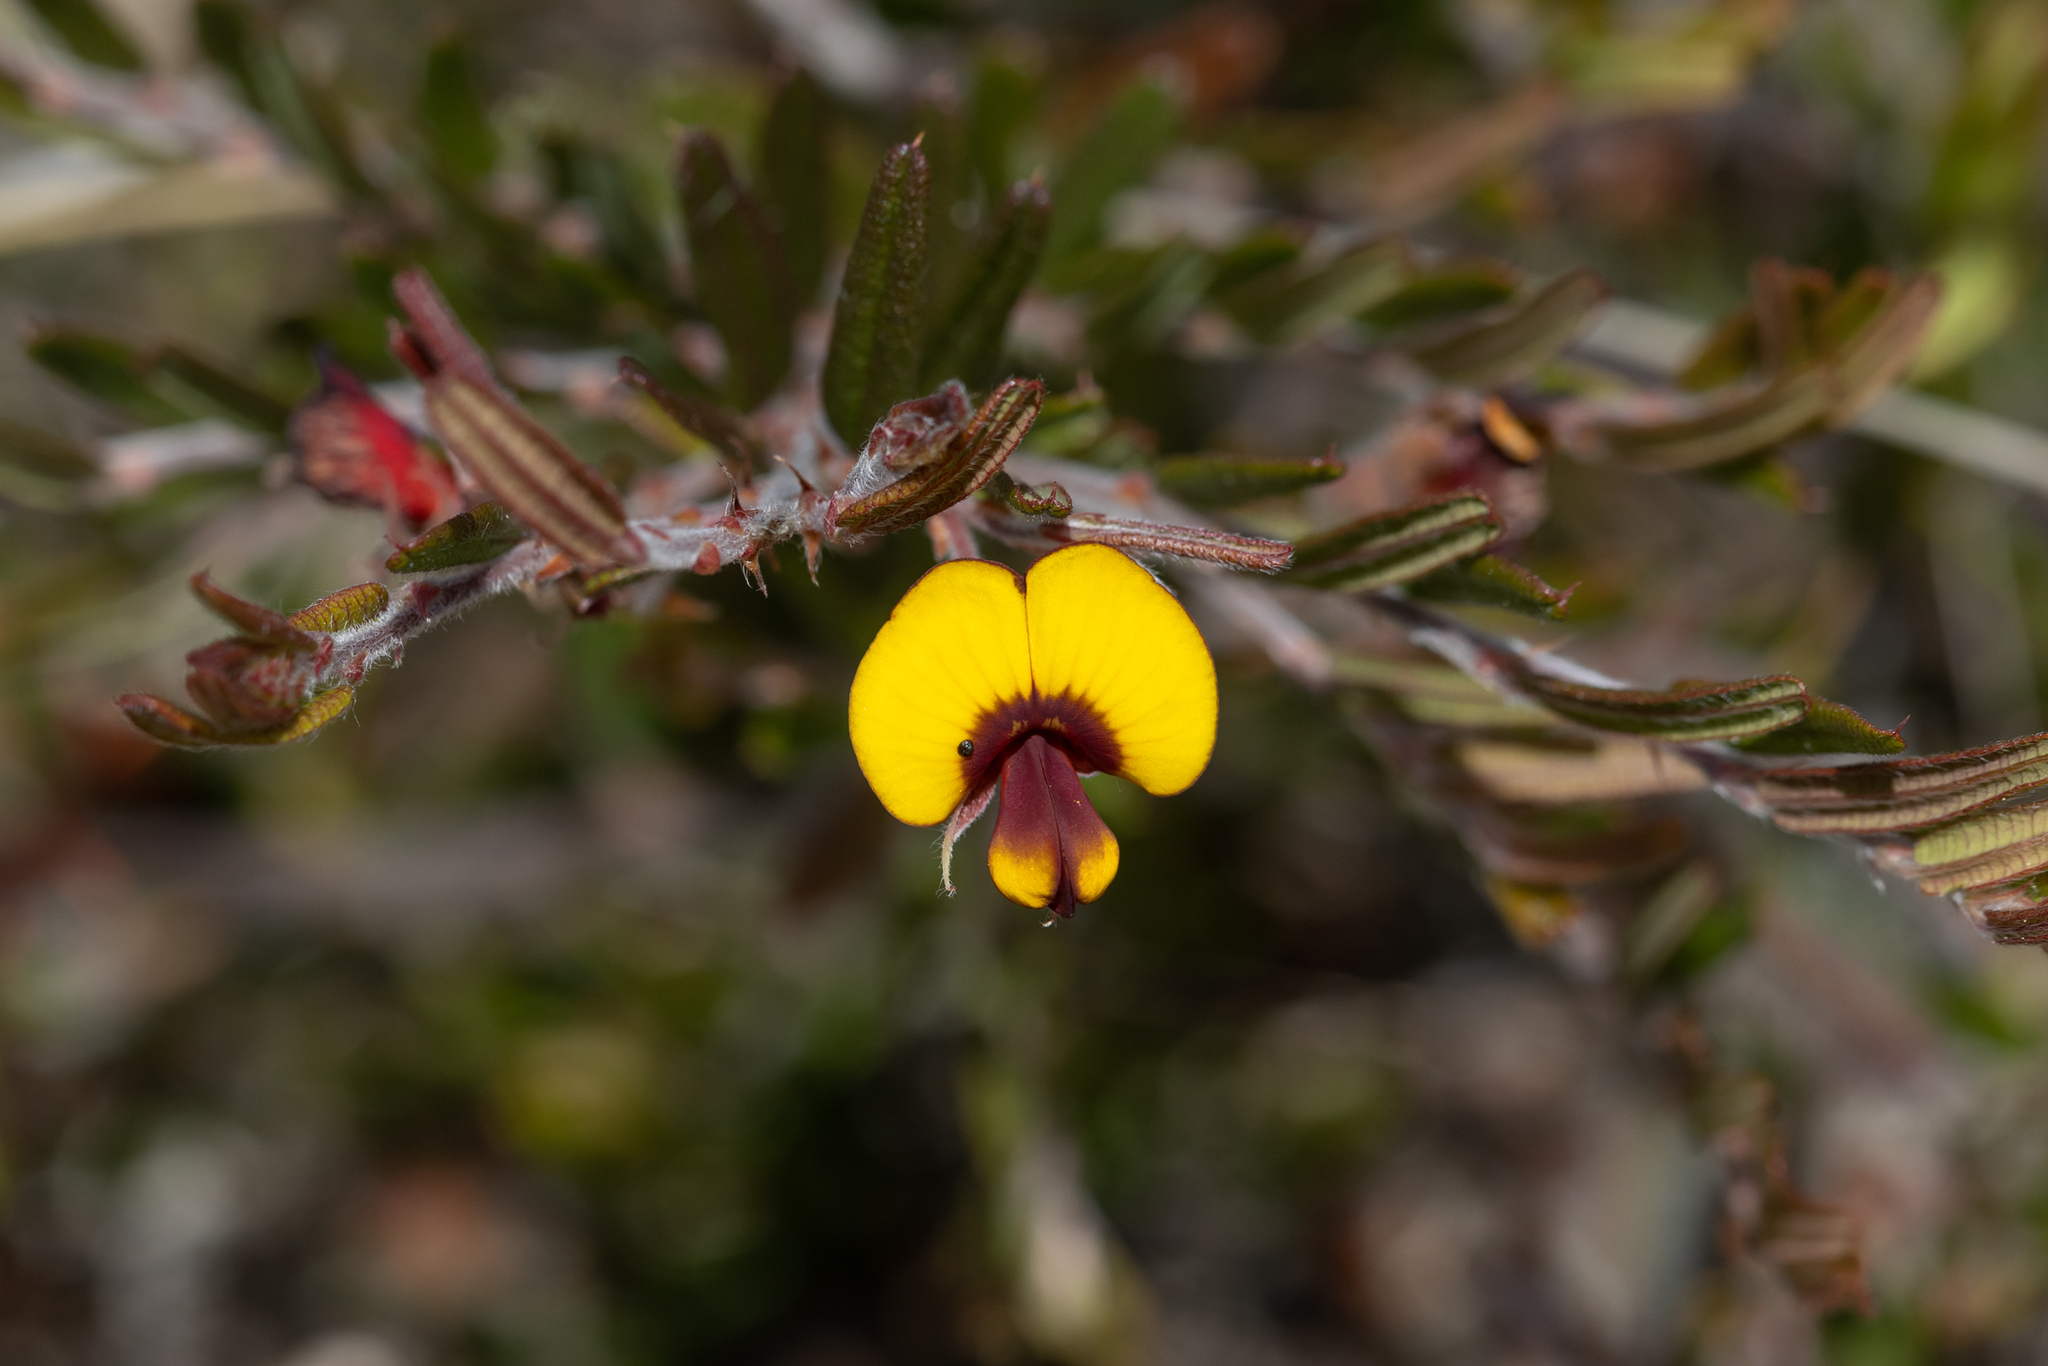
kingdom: Plantae
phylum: Tracheophyta
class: Magnoliopsida
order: Fabales
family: Fabaceae
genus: Bossiaea
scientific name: Bossiaea eriocarpa
